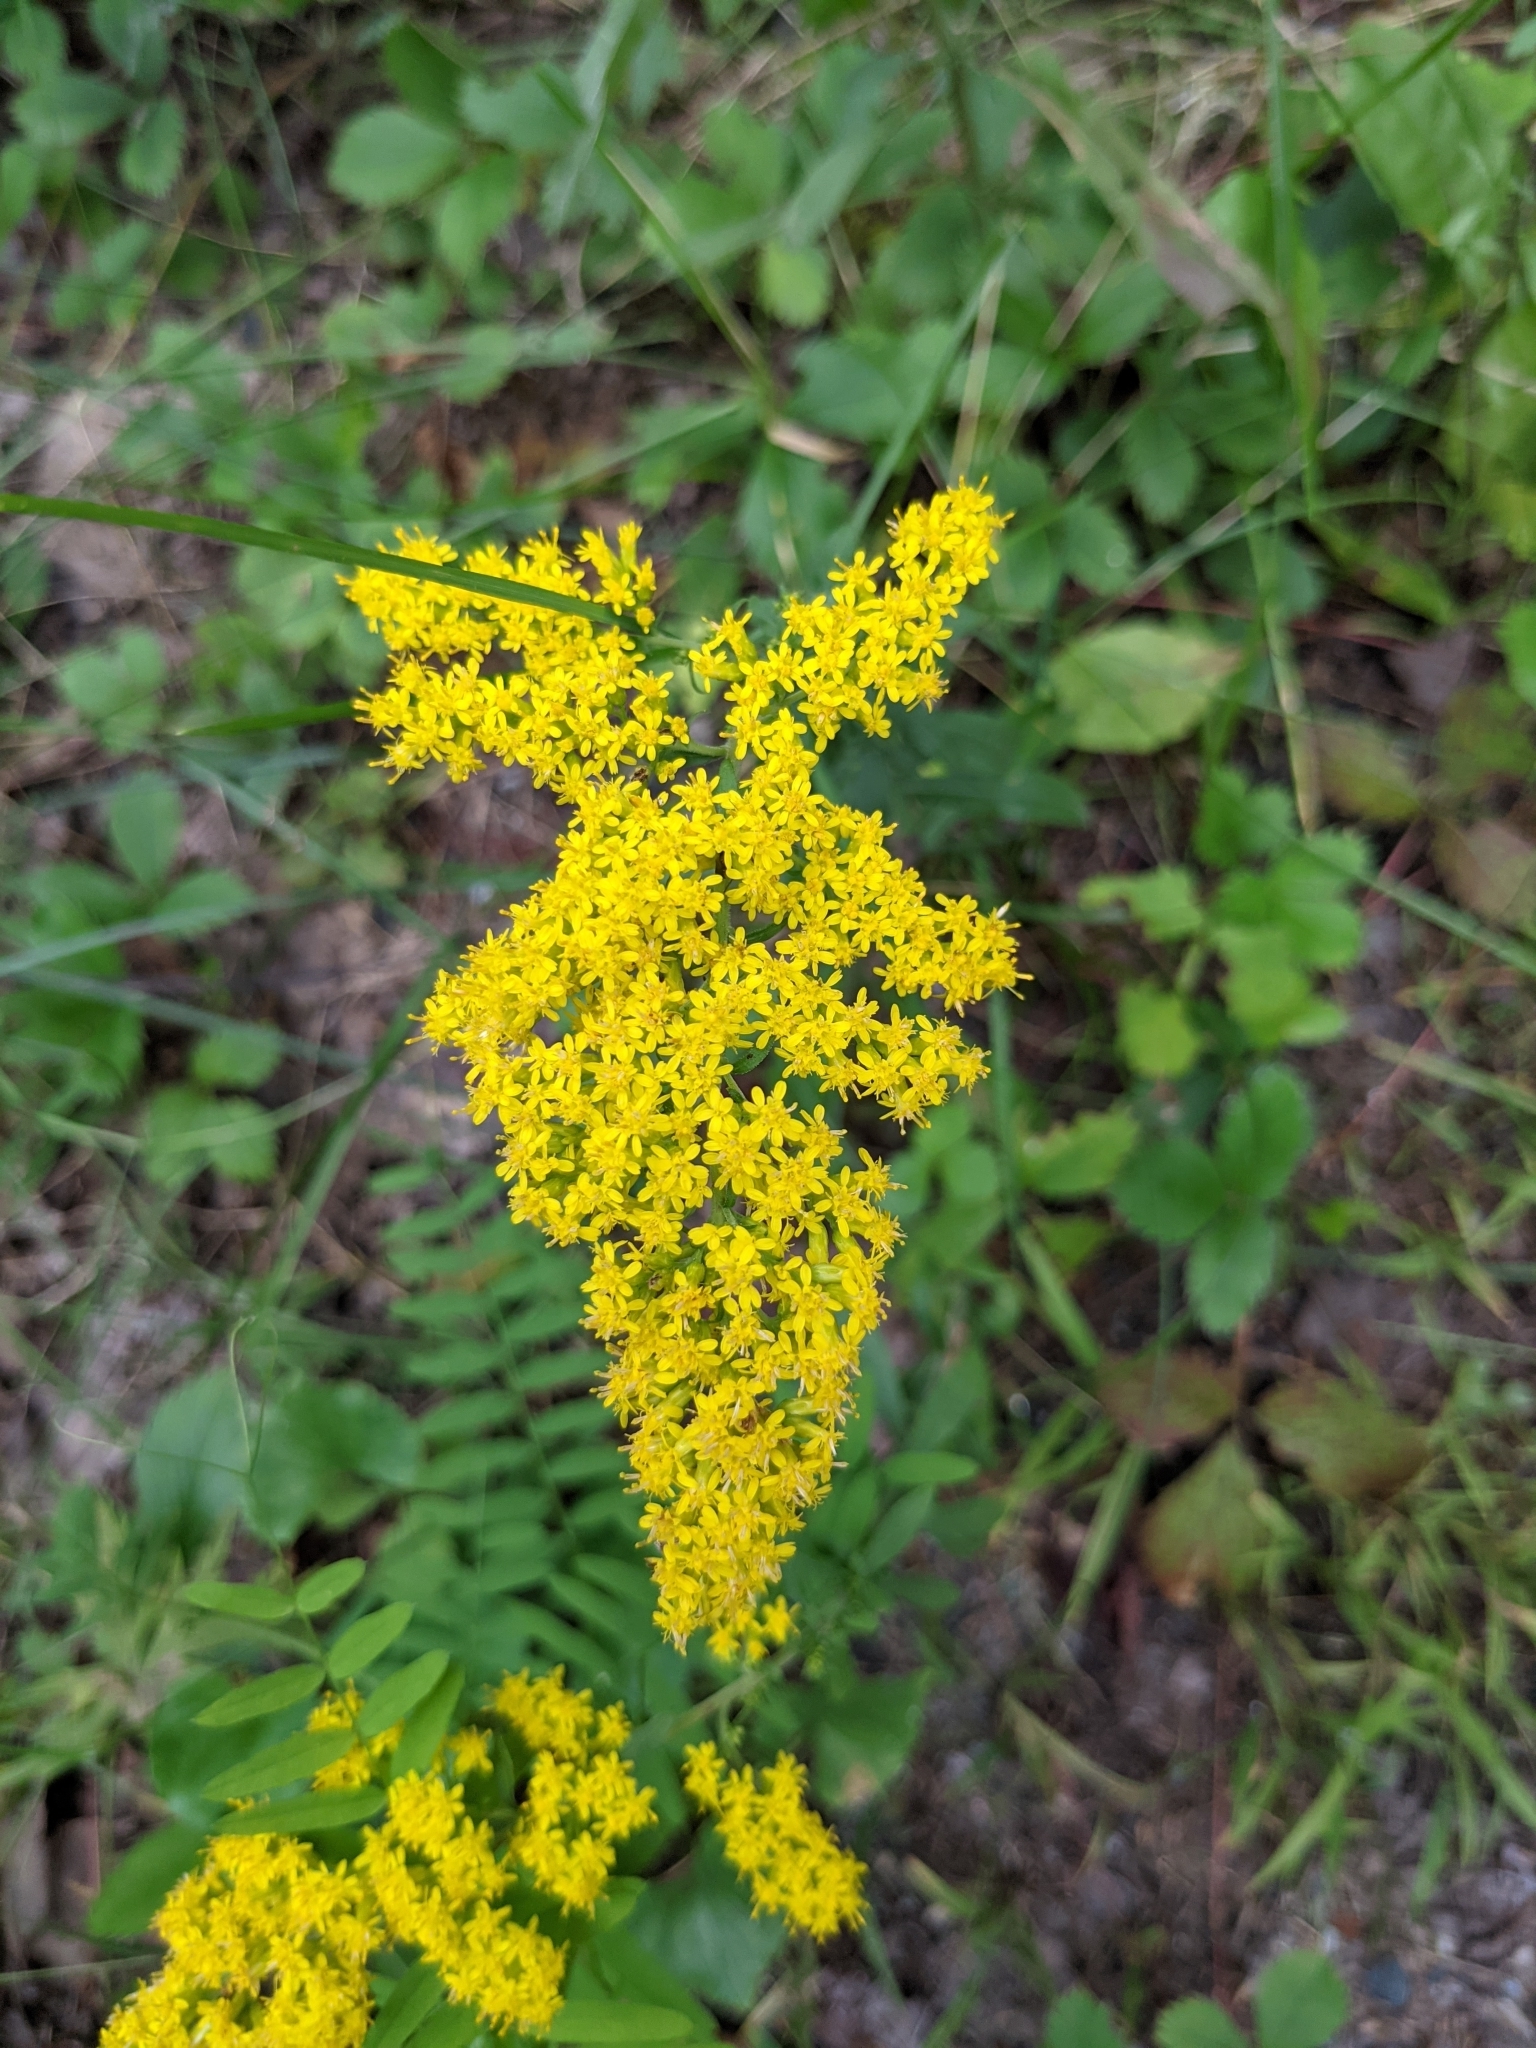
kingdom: Plantae
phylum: Tracheophyta
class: Magnoliopsida
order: Asterales
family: Asteraceae
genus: Solidago
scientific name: Solidago nemoralis
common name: Grey goldenrod
